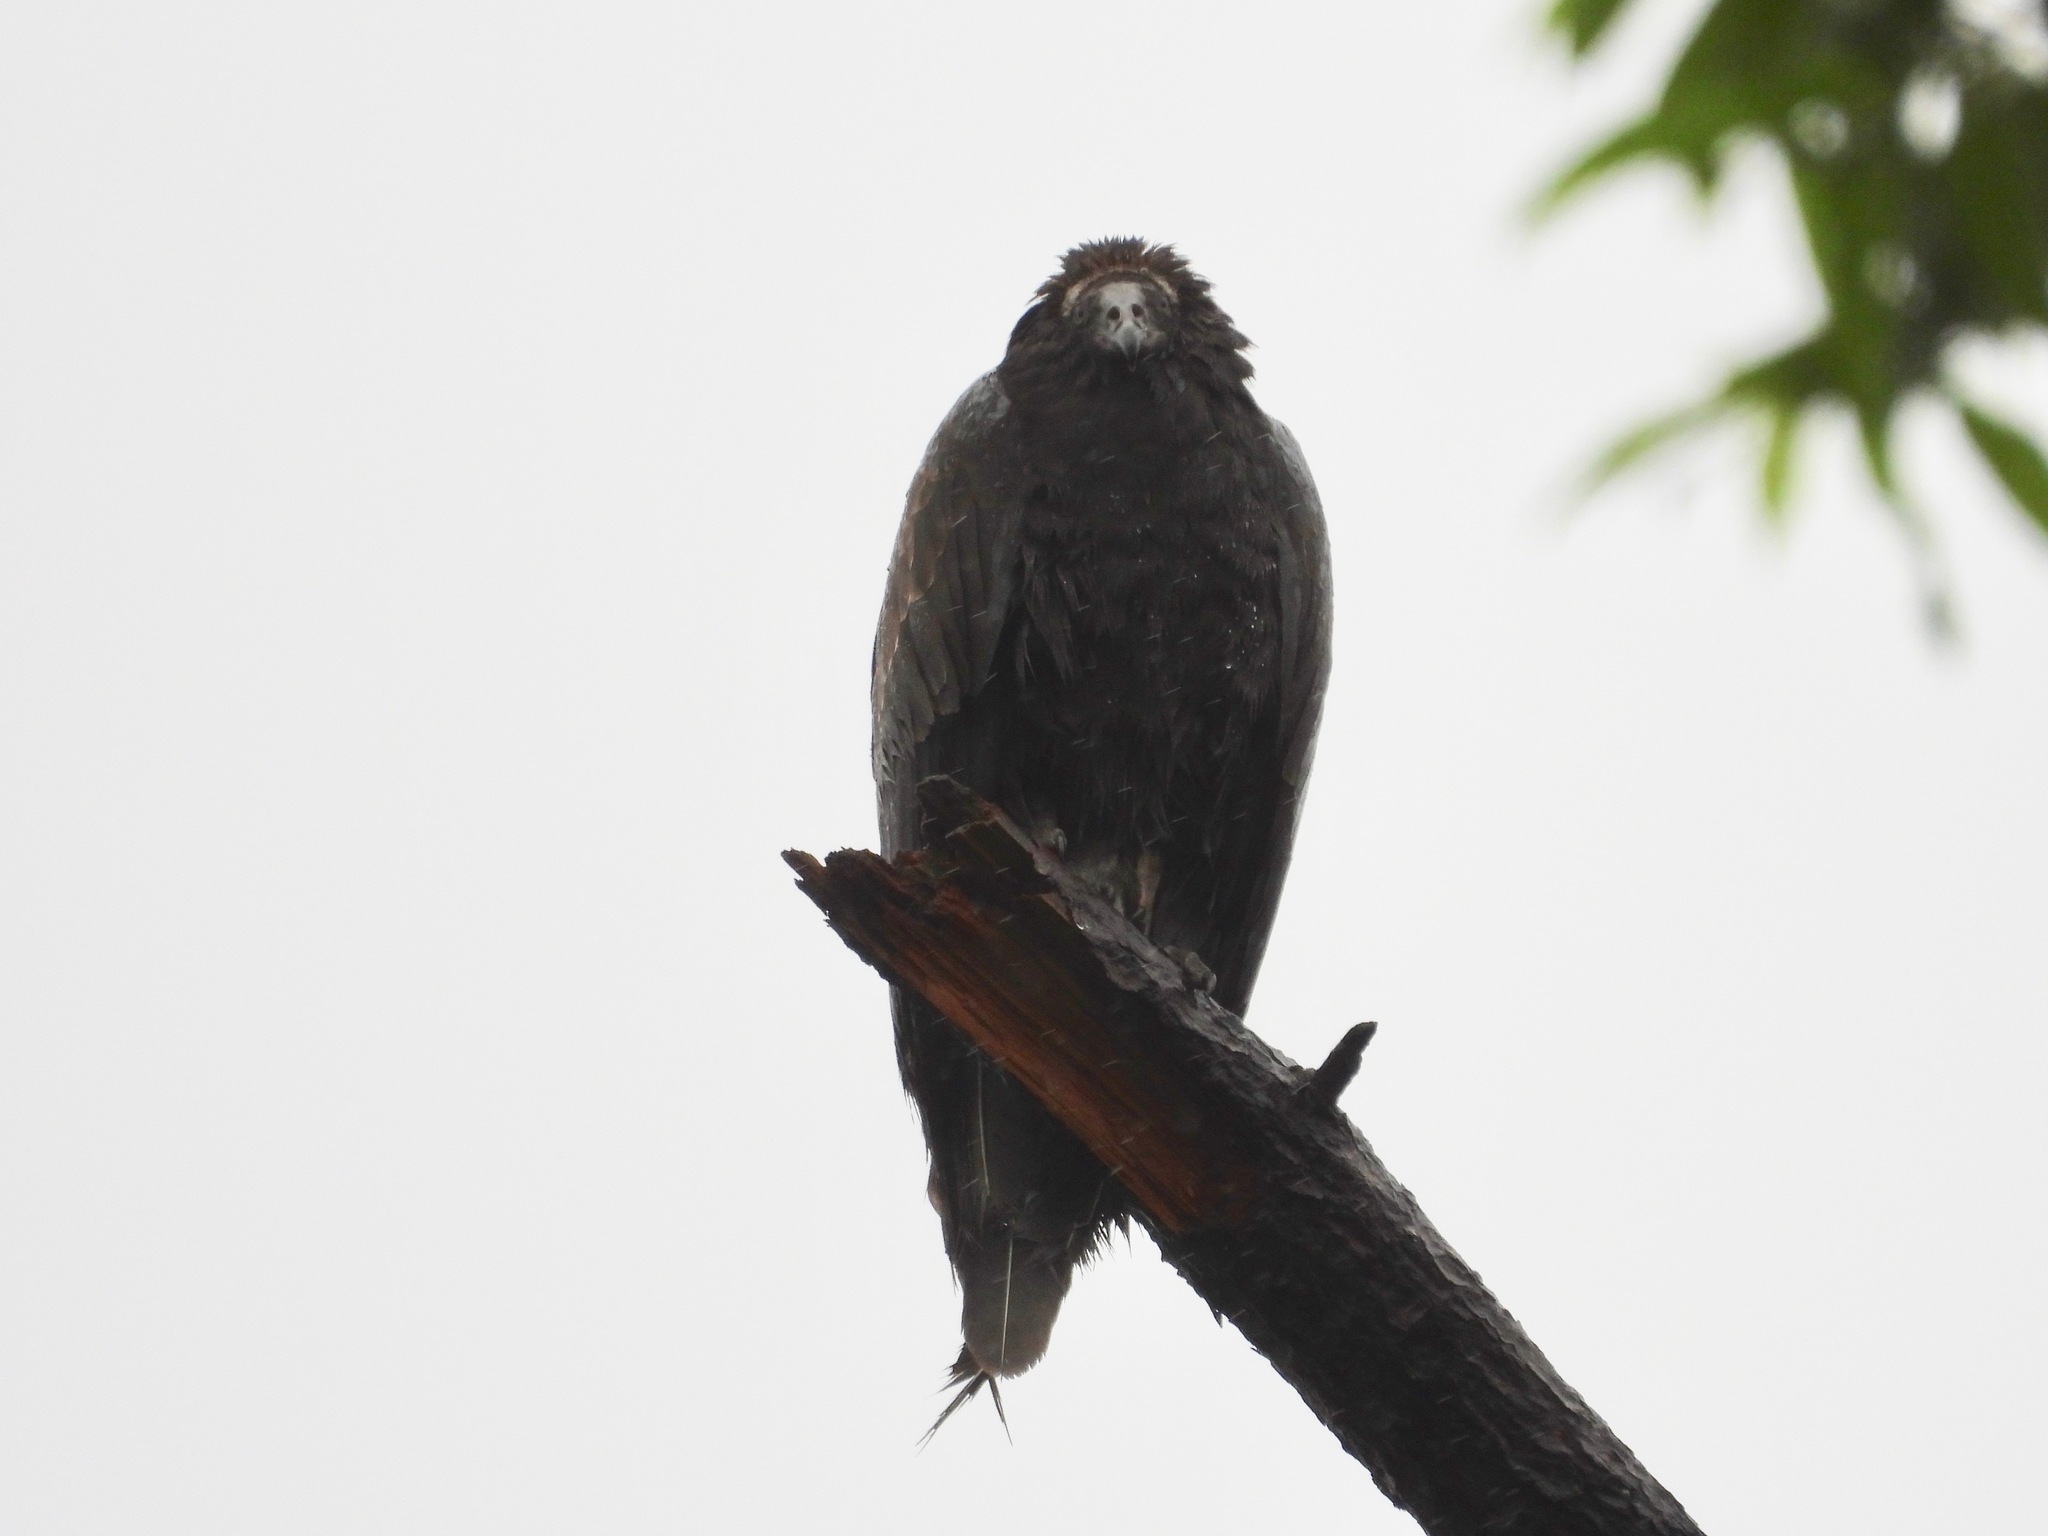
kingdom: Animalia
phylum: Chordata
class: Aves
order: Accipitriformes
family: Cathartidae
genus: Cathartes
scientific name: Cathartes aura
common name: Turkey vulture
